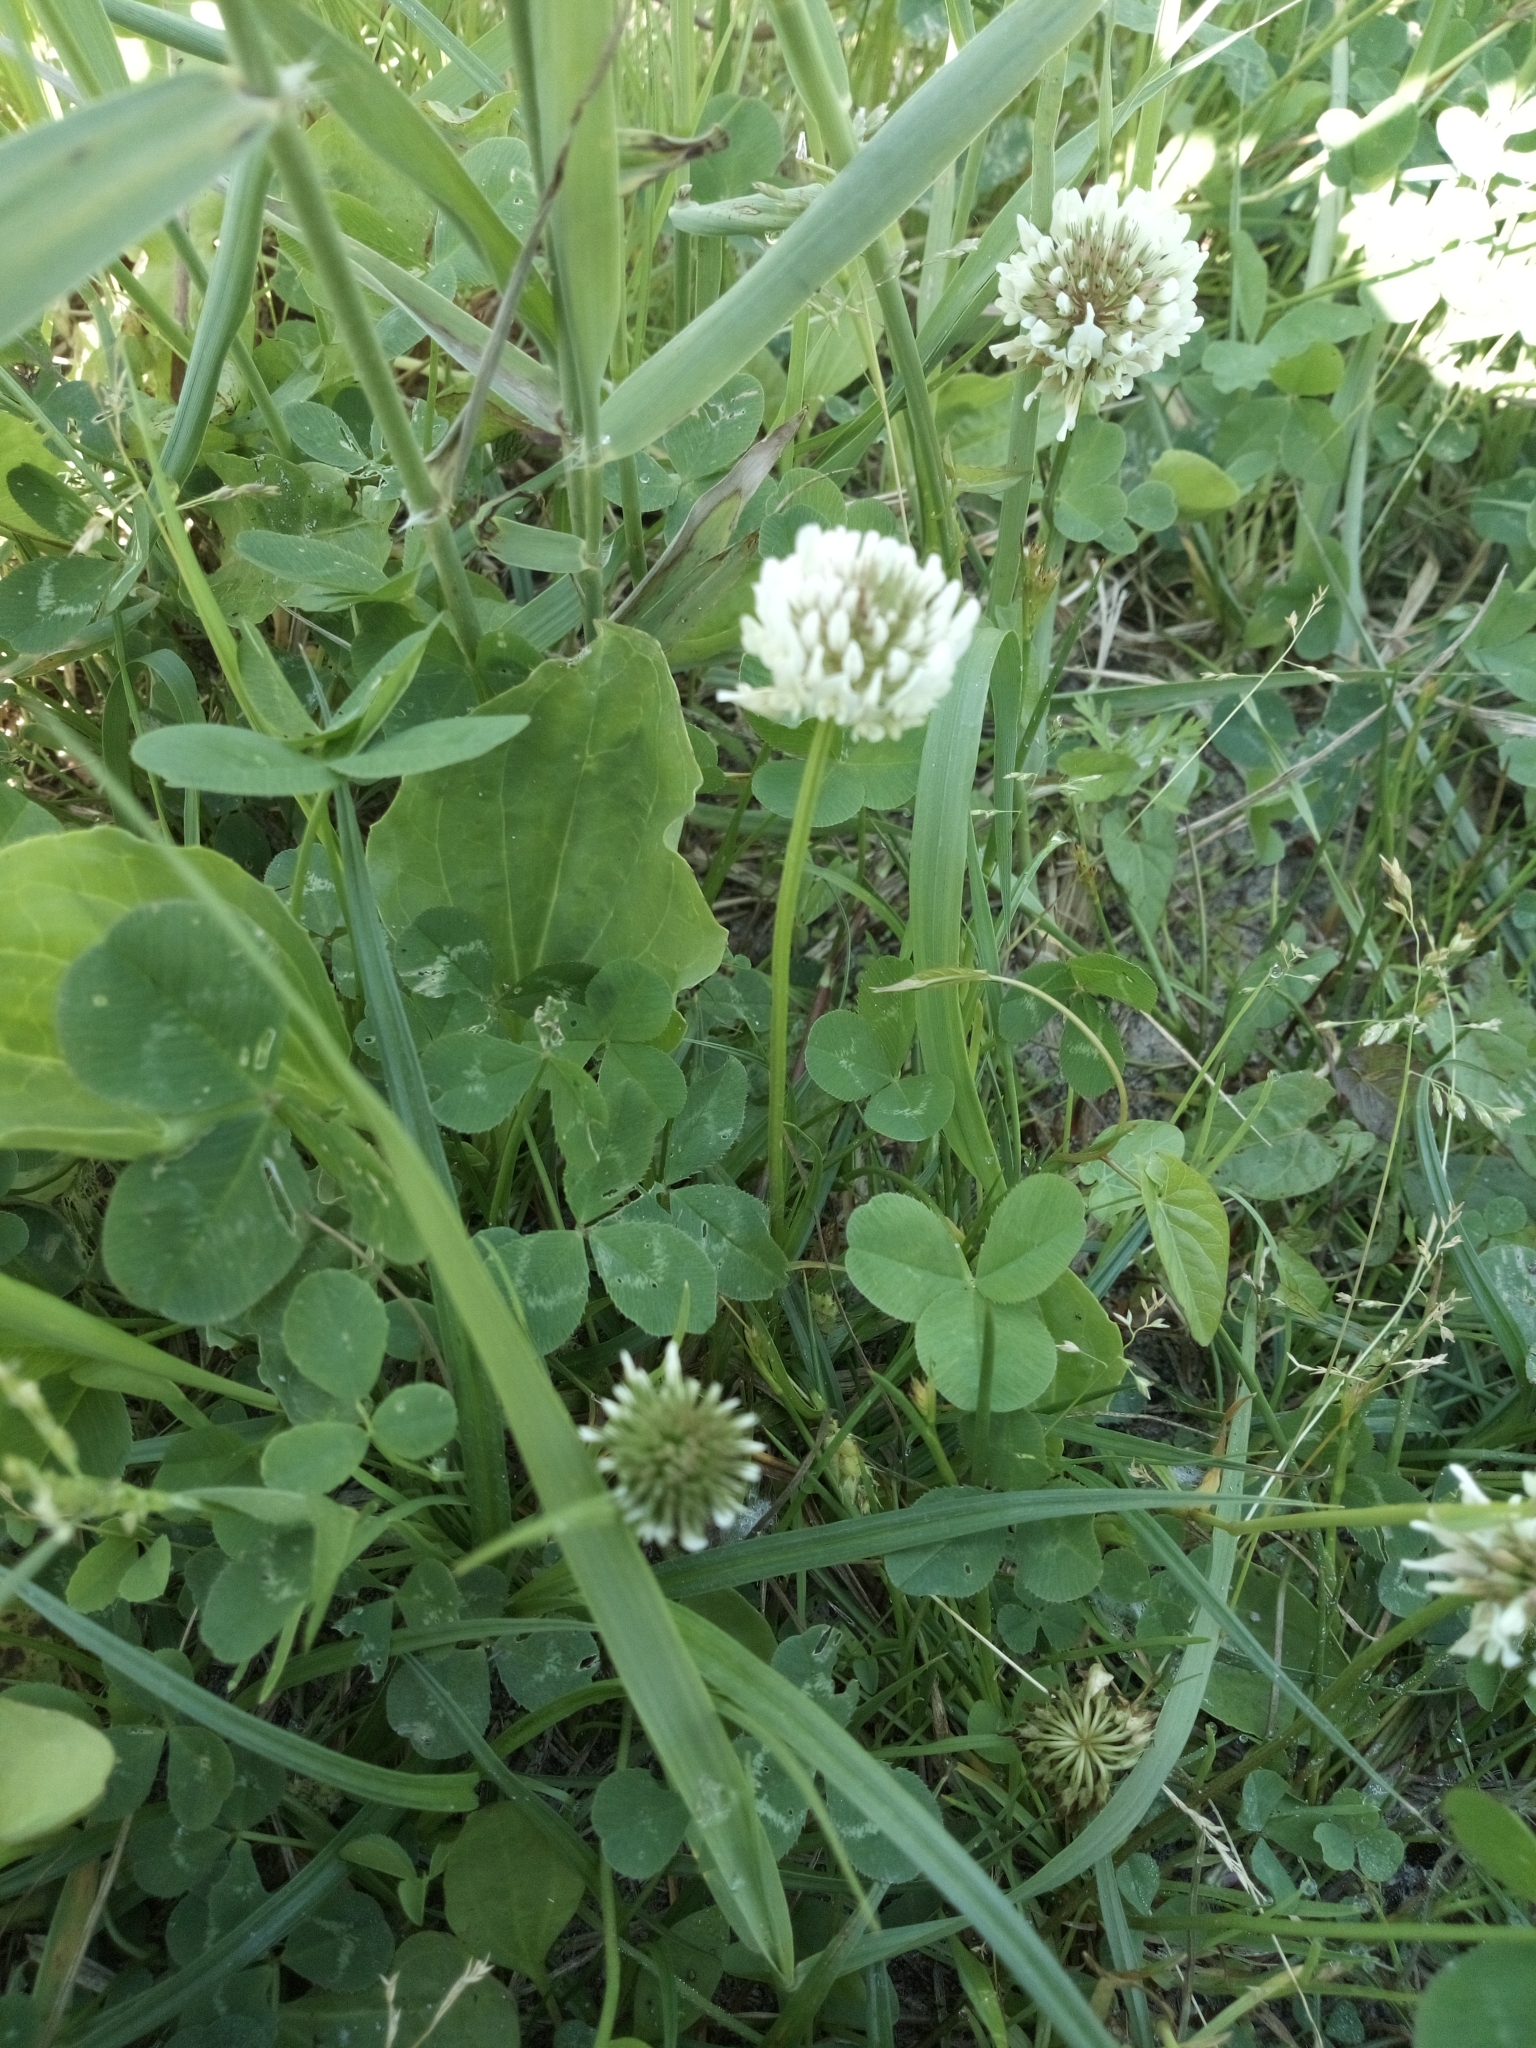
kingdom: Plantae
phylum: Tracheophyta
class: Magnoliopsida
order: Fabales
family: Fabaceae
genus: Trifolium
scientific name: Trifolium repens
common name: White clover
